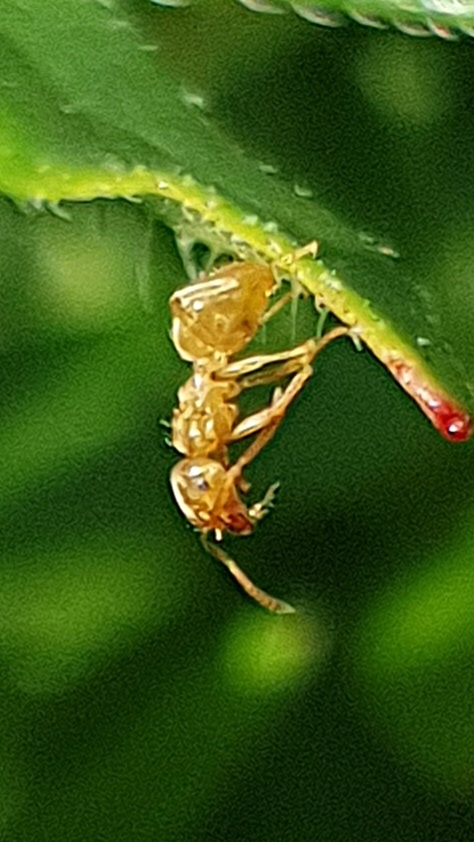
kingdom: Animalia
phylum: Arthropoda
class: Insecta
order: Hymenoptera
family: Formicidae
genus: Lasius
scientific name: Lasius flavus
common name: Blond field ant
